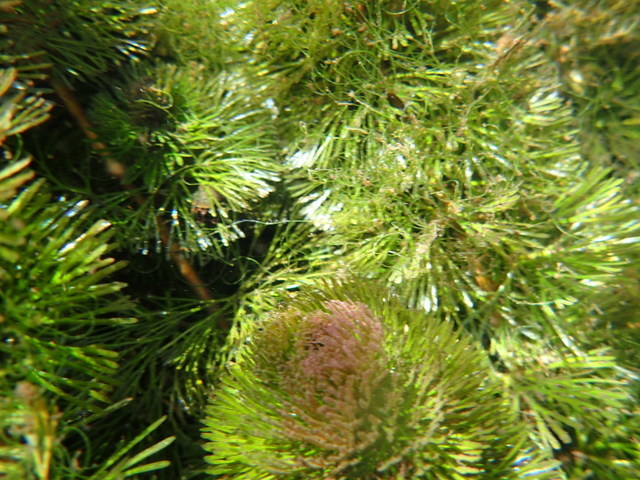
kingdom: Plantae
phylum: Tracheophyta
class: Magnoliopsida
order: Nymphaeales
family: Cabombaceae
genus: Cabomba
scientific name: Cabomba caroliniana
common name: Fanwort
